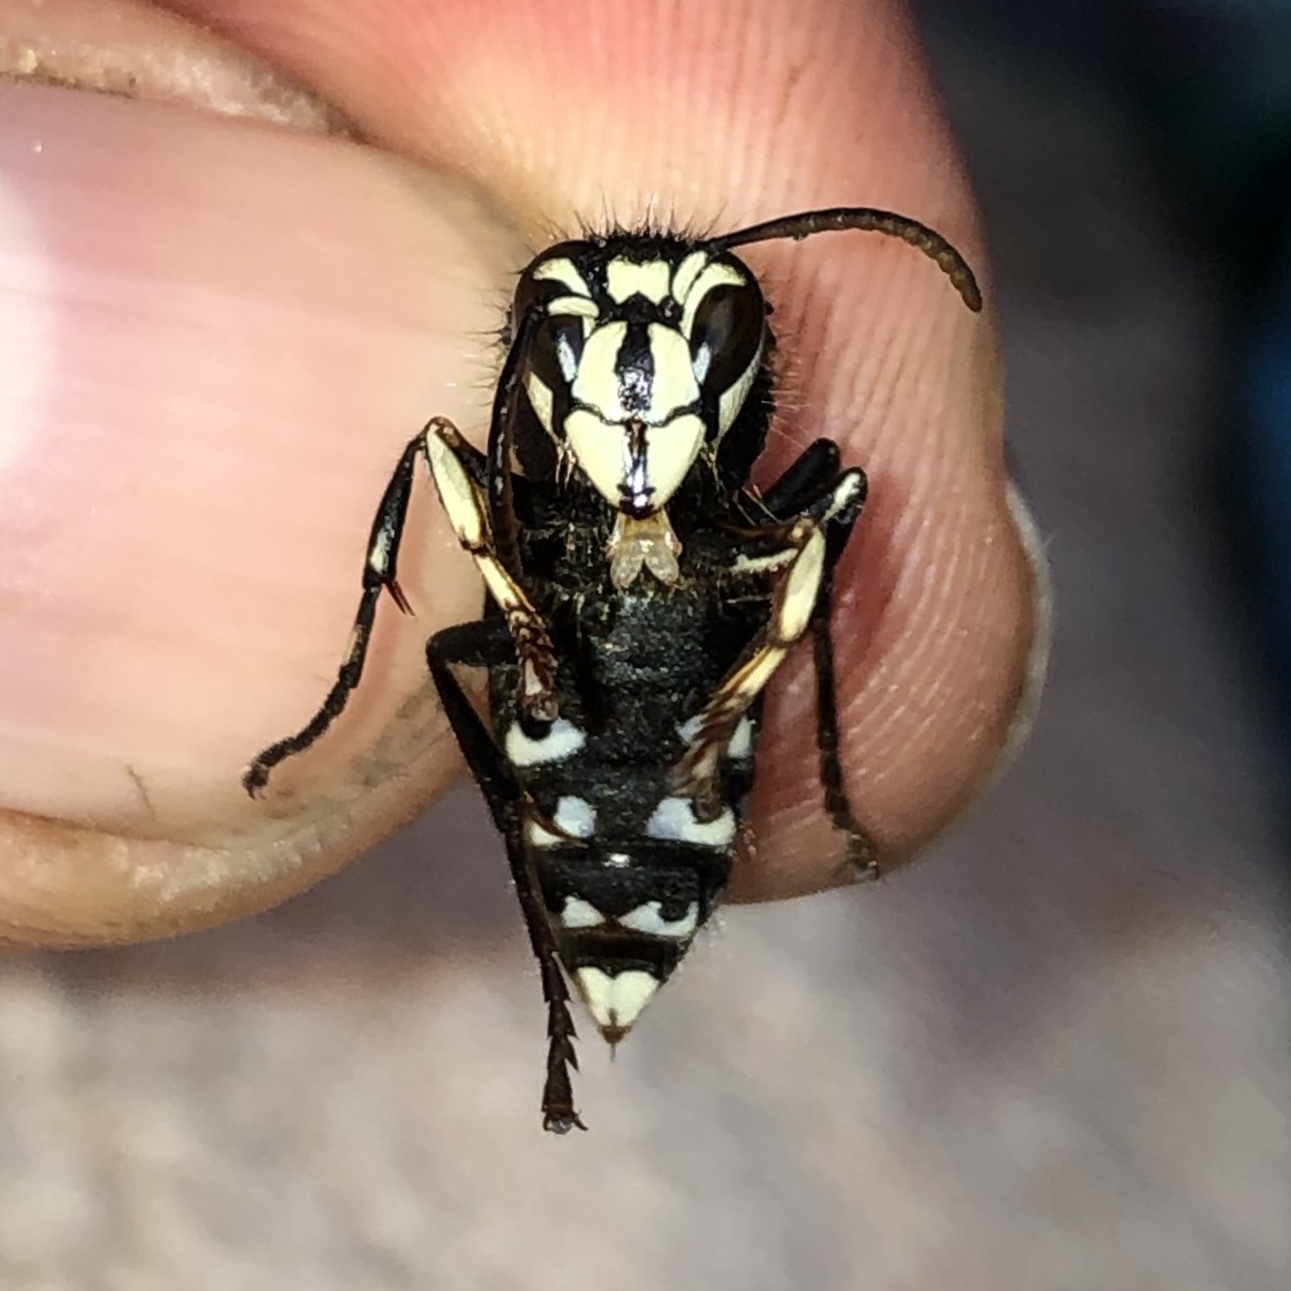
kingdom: Animalia
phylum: Arthropoda
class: Insecta
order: Hymenoptera
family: Vespidae
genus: Dolichovespula
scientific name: Dolichovespula maculata
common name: Bald-faced hornet
